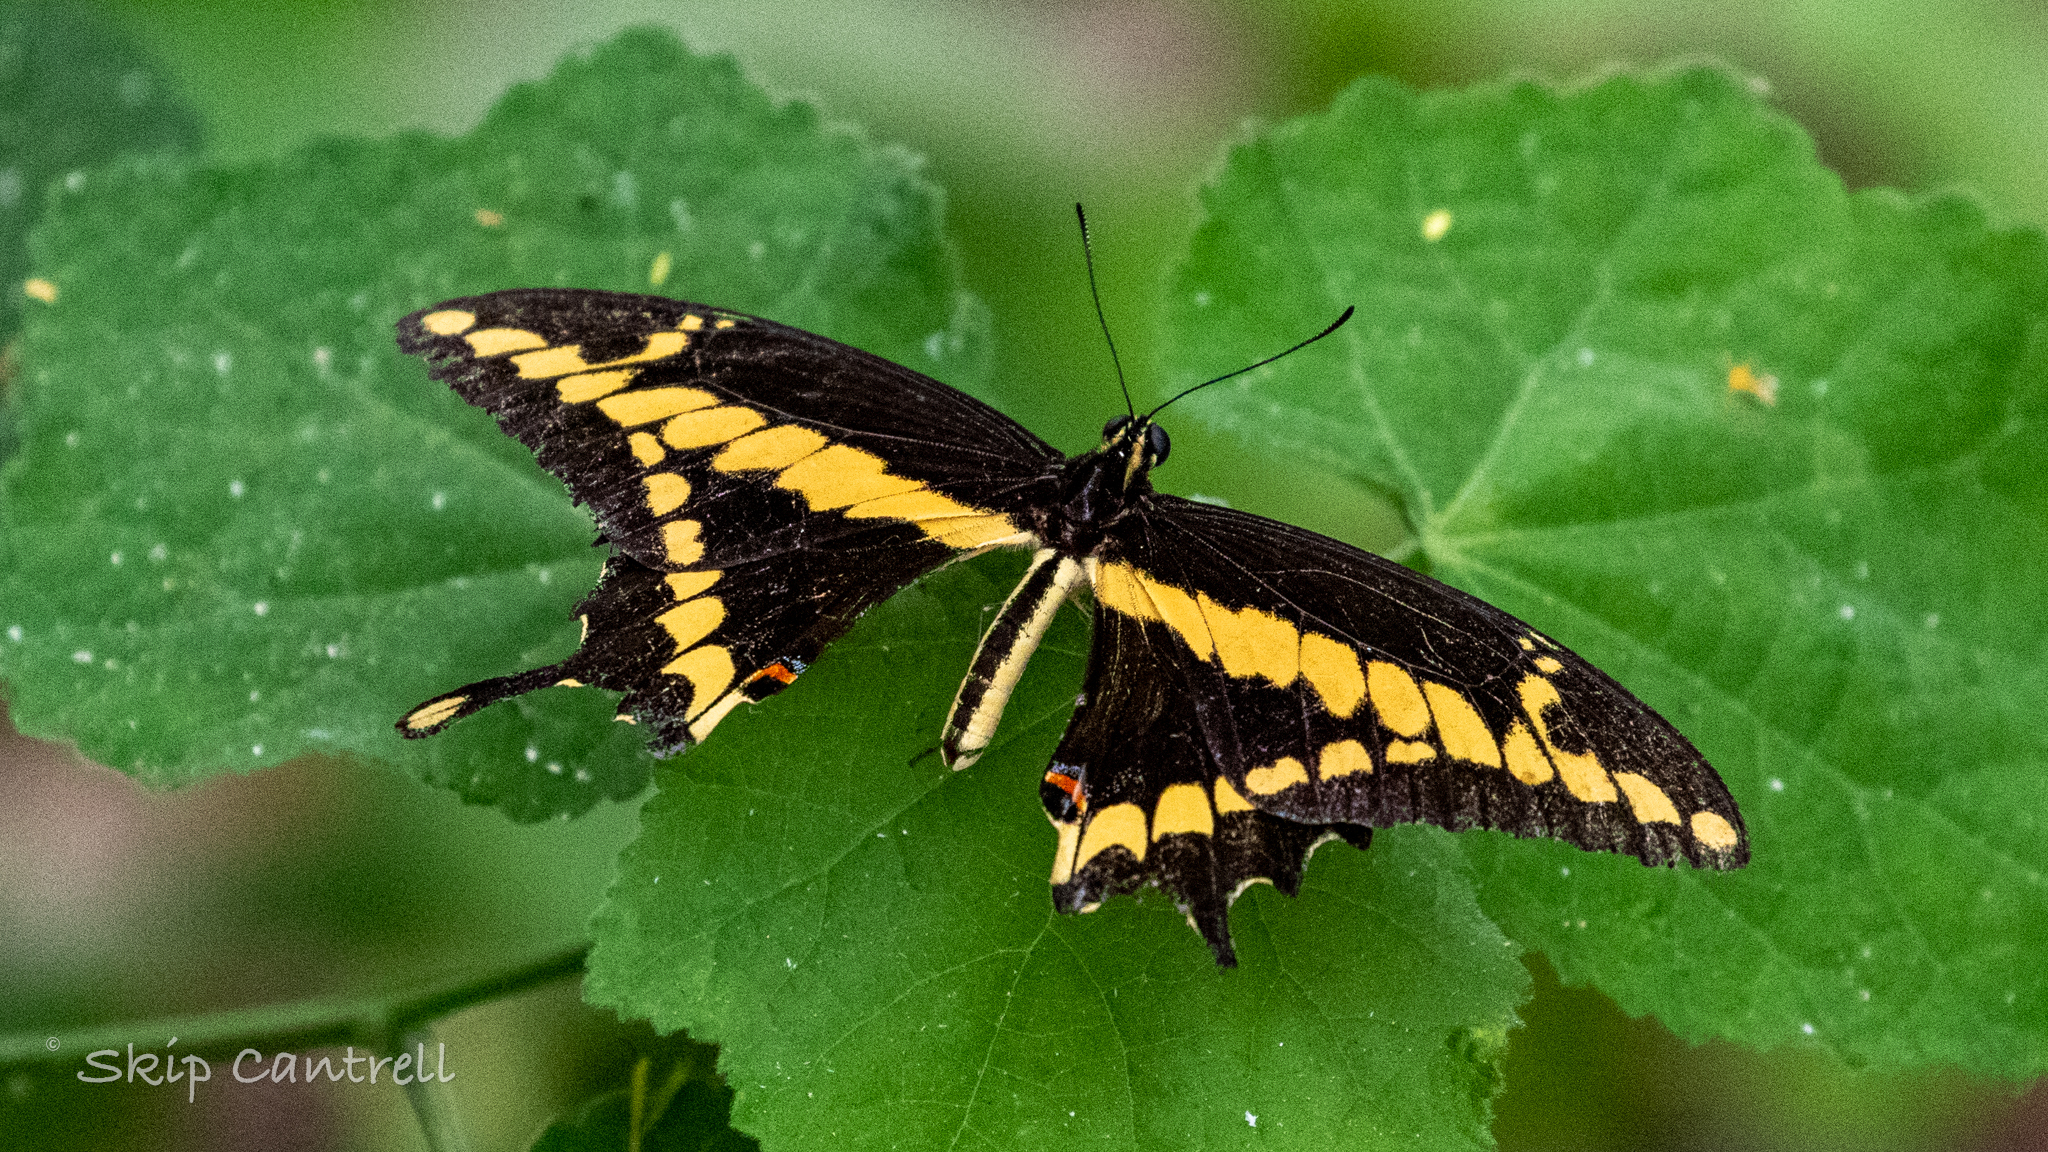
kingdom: Animalia
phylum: Arthropoda
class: Insecta
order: Lepidoptera
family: Papilionidae
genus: Papilio
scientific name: Papilio rumiko
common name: Western giant swallowtail
